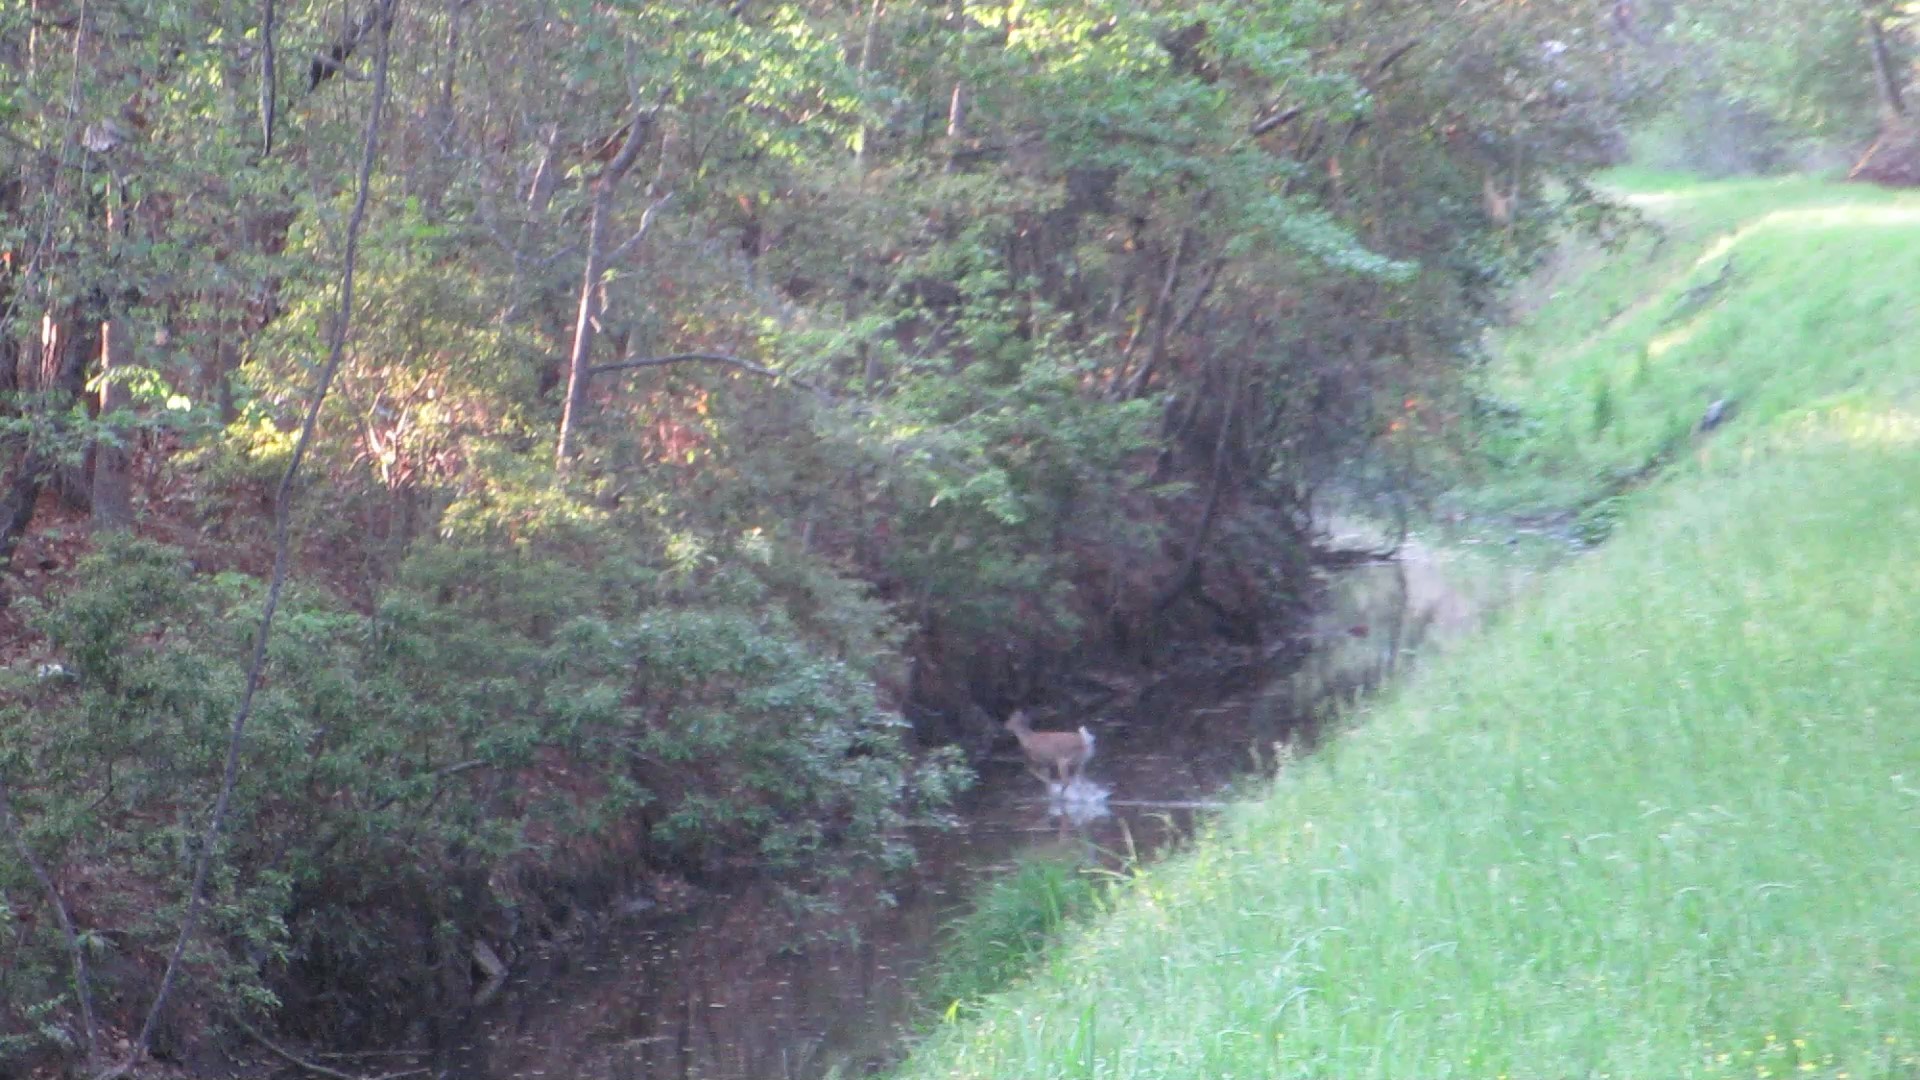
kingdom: Animalia
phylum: Chordata
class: Mammalia
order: Artiodactyla
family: Cervidae
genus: Odocoileus
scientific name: Odocoileus virginianus
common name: White-tailed deer
